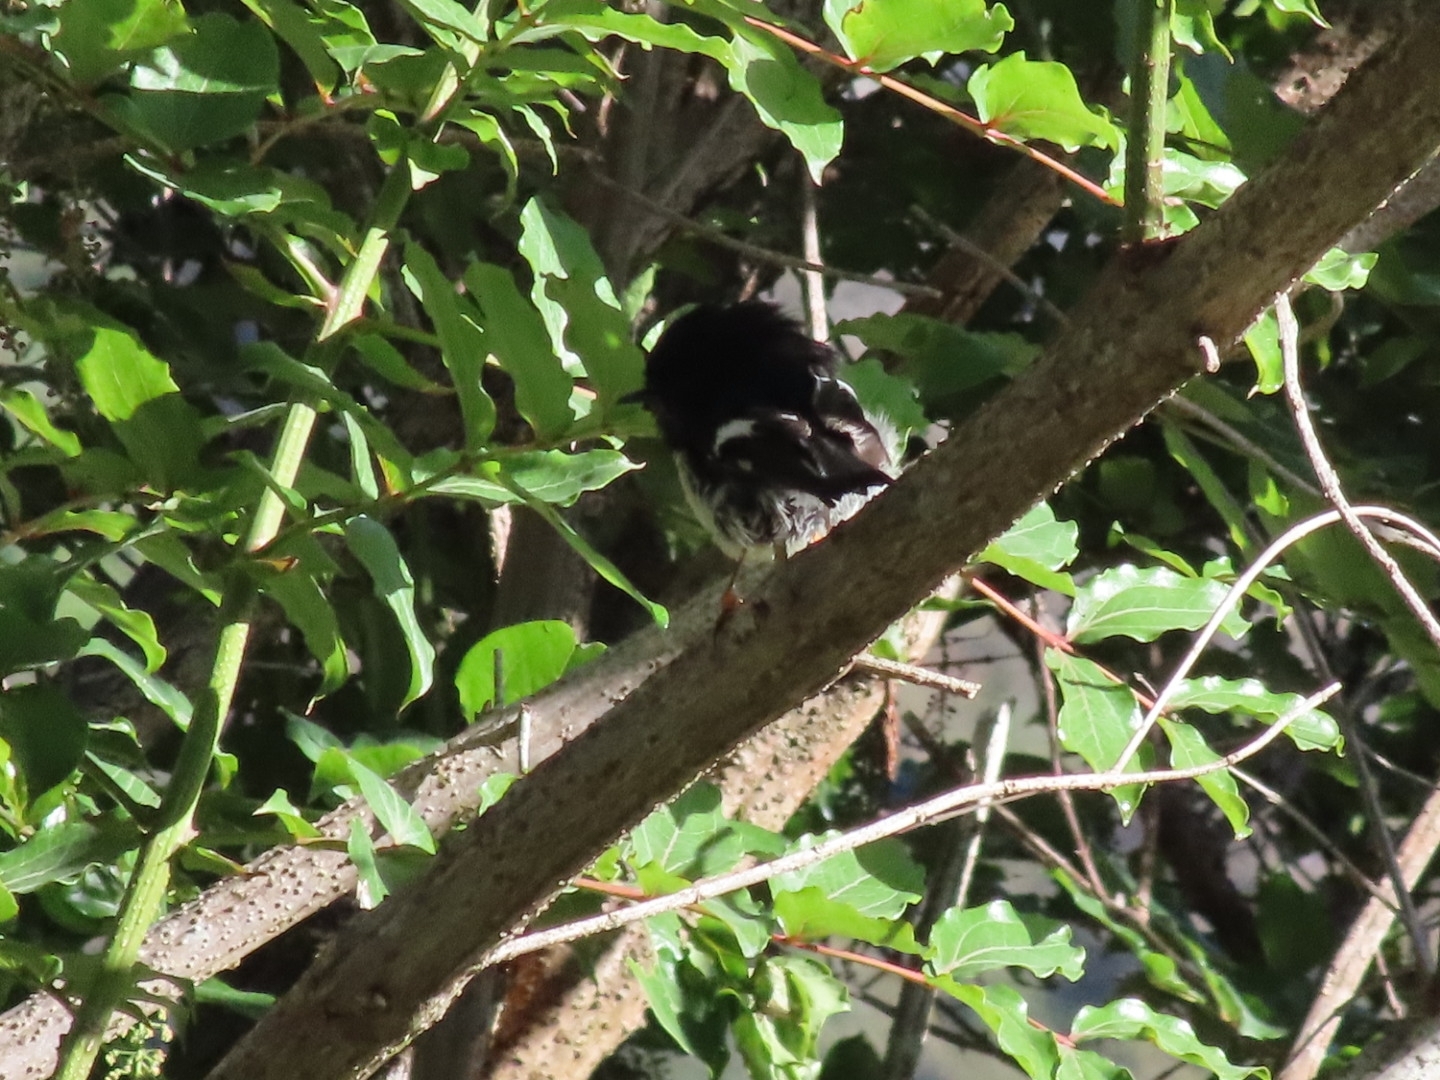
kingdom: Animalia
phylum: Chordata
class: Aves
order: Passeriformes
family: Petroicidae
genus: Petroica
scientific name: Petroica macrocephala
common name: Tomtit
